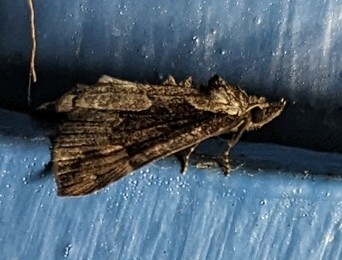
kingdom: Animalia
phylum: Arthropoda
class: Insecta
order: Lepidoptera
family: Erebidae
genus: Hypena
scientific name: Hypena baltimoralis
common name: Baltimore snout
